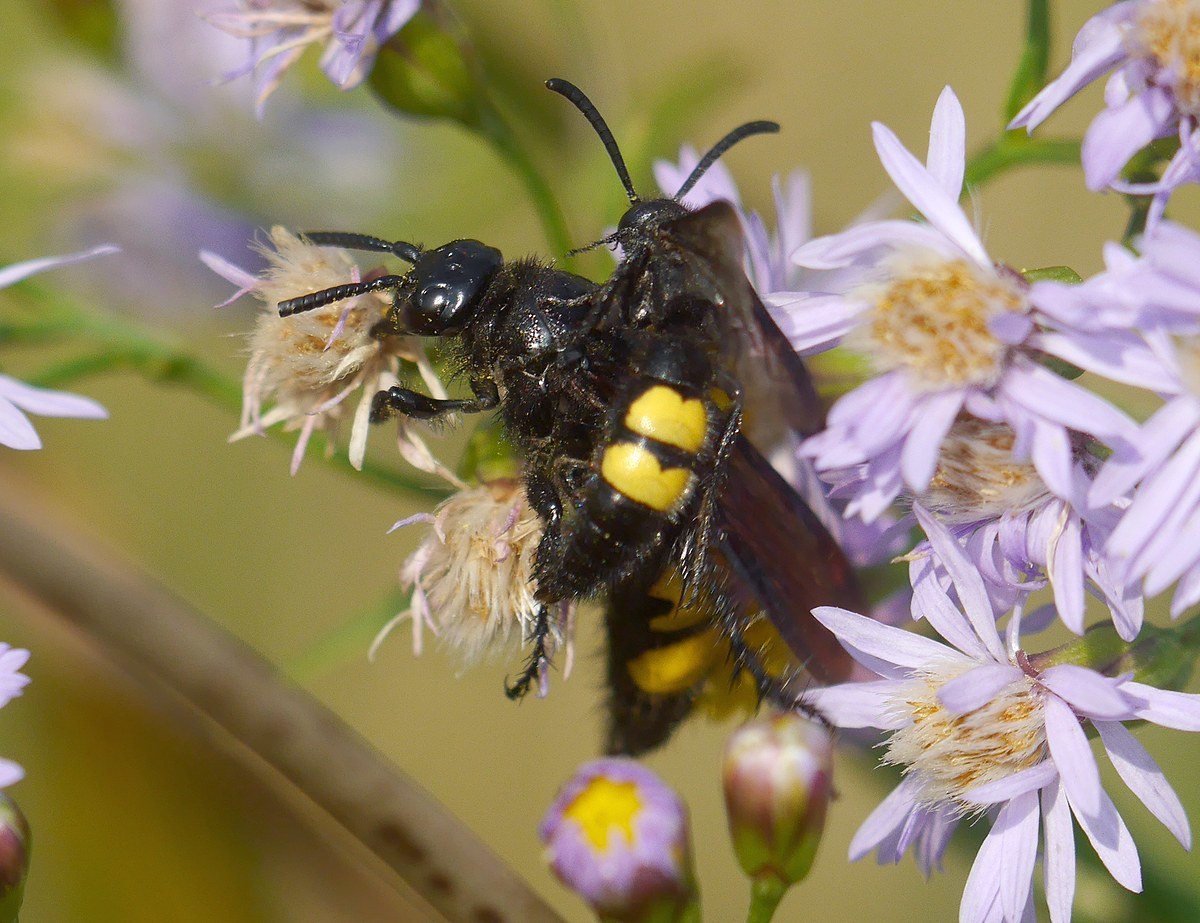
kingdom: Animalia
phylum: Arthropoda
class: Insecta
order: Hymenoptera
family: Scoliidae
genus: Scolia
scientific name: Scolia hirta
